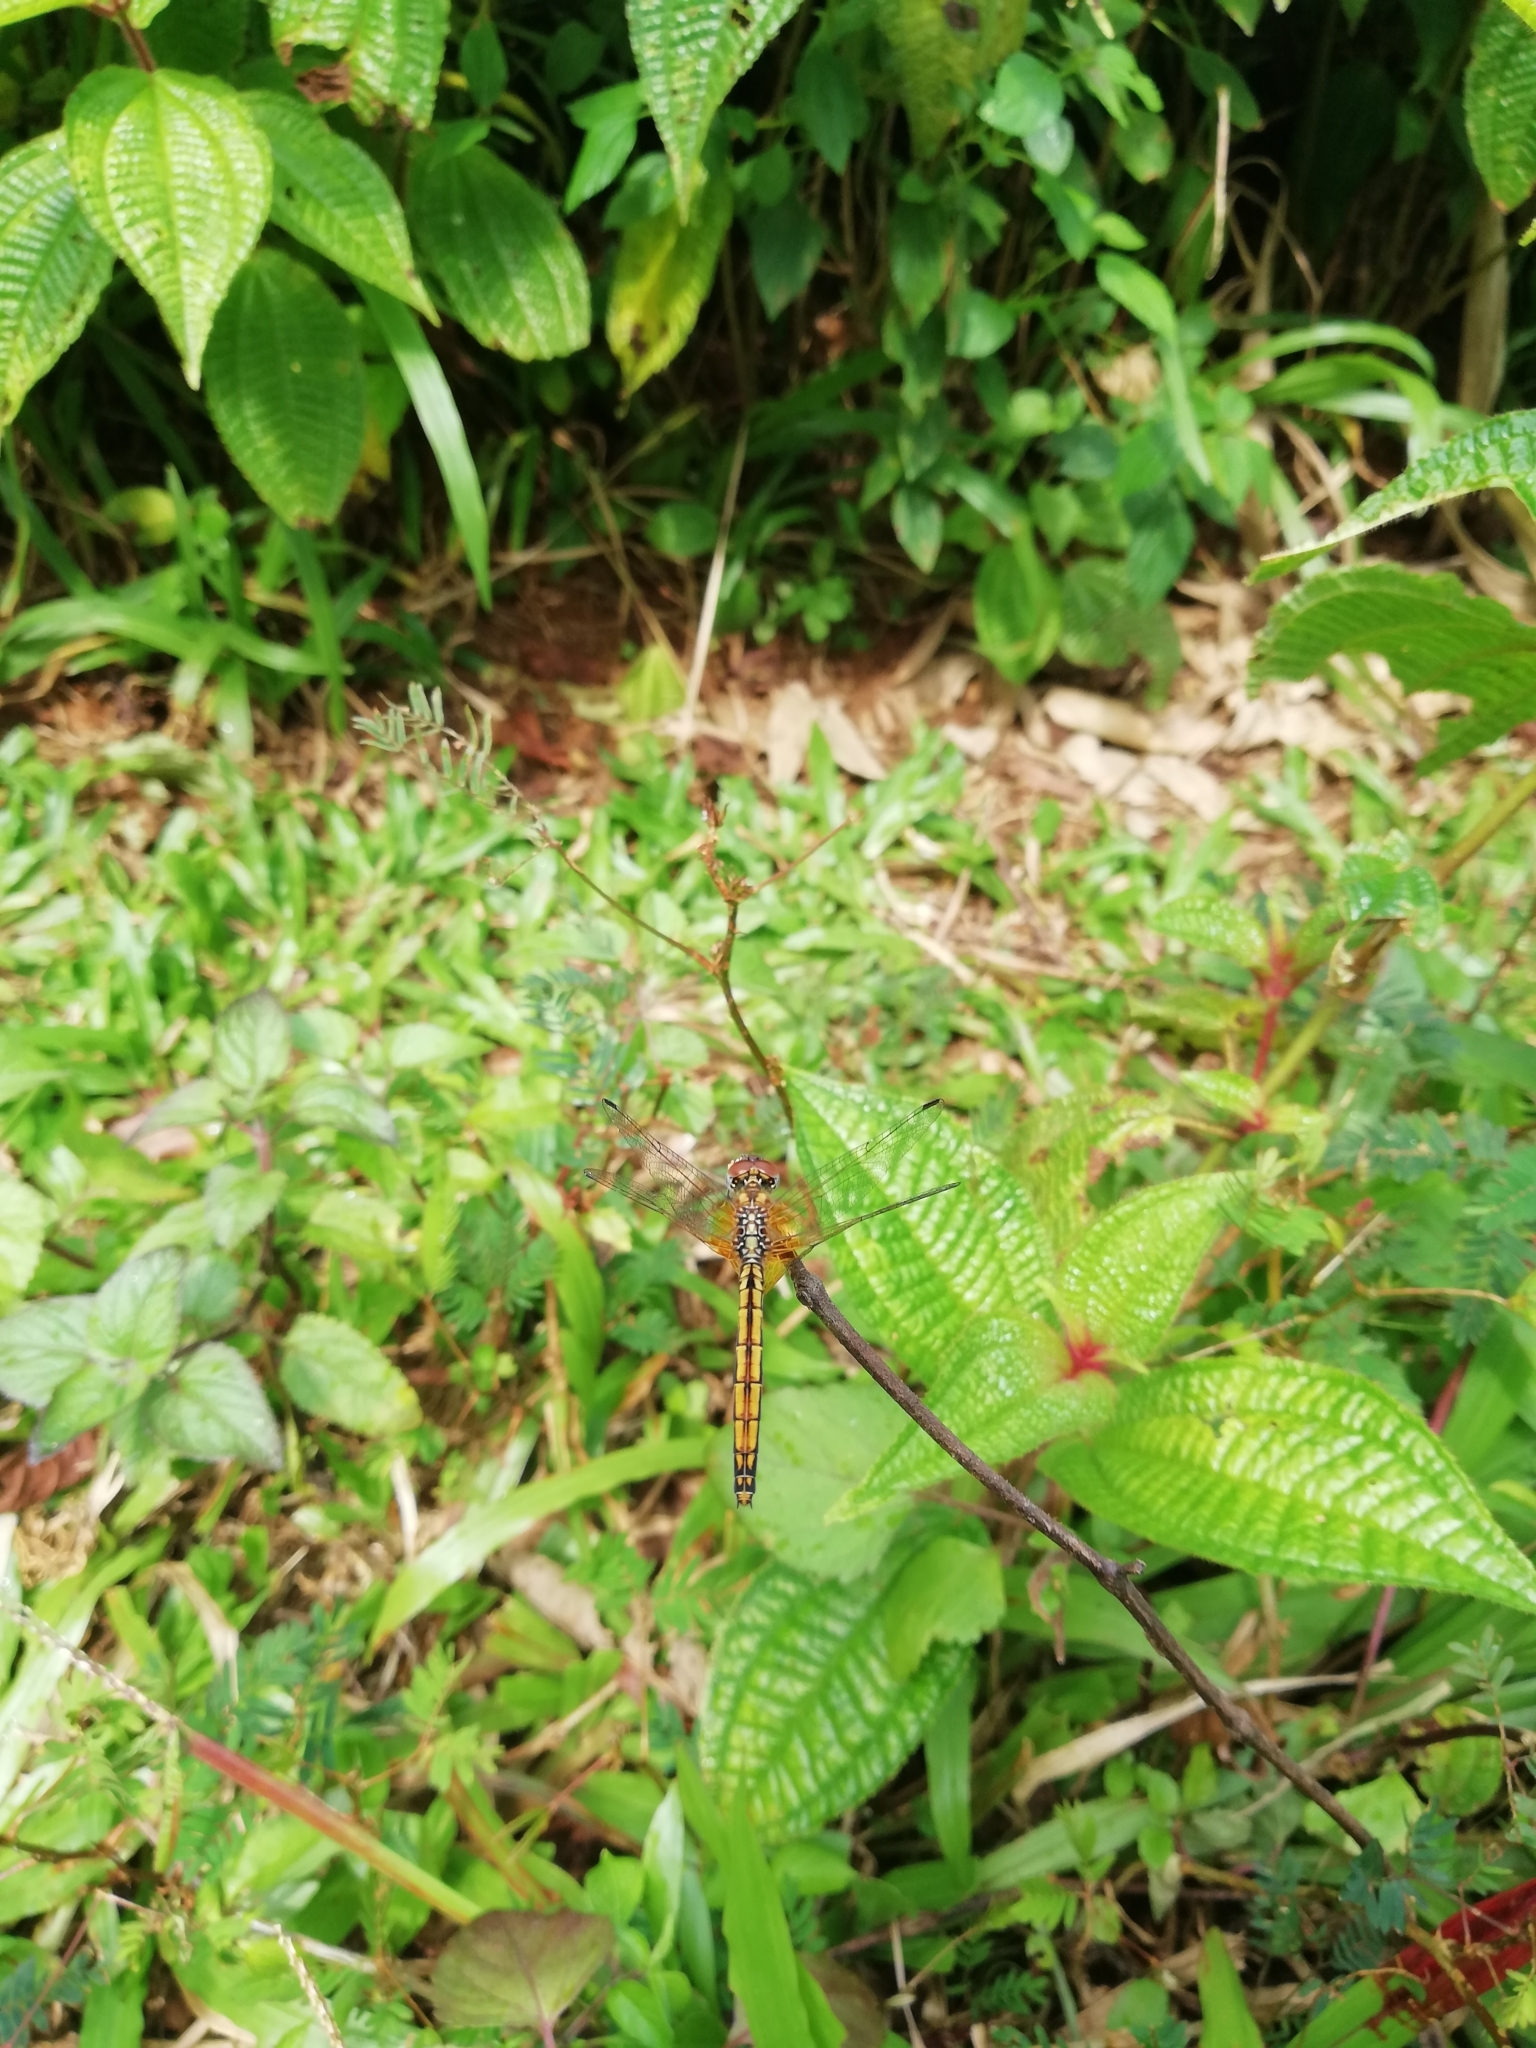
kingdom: Animalia
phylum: Arthropoda
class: Insecta
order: Odonata
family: Libellulidae
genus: Trithemis
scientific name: Trithemis aurora
